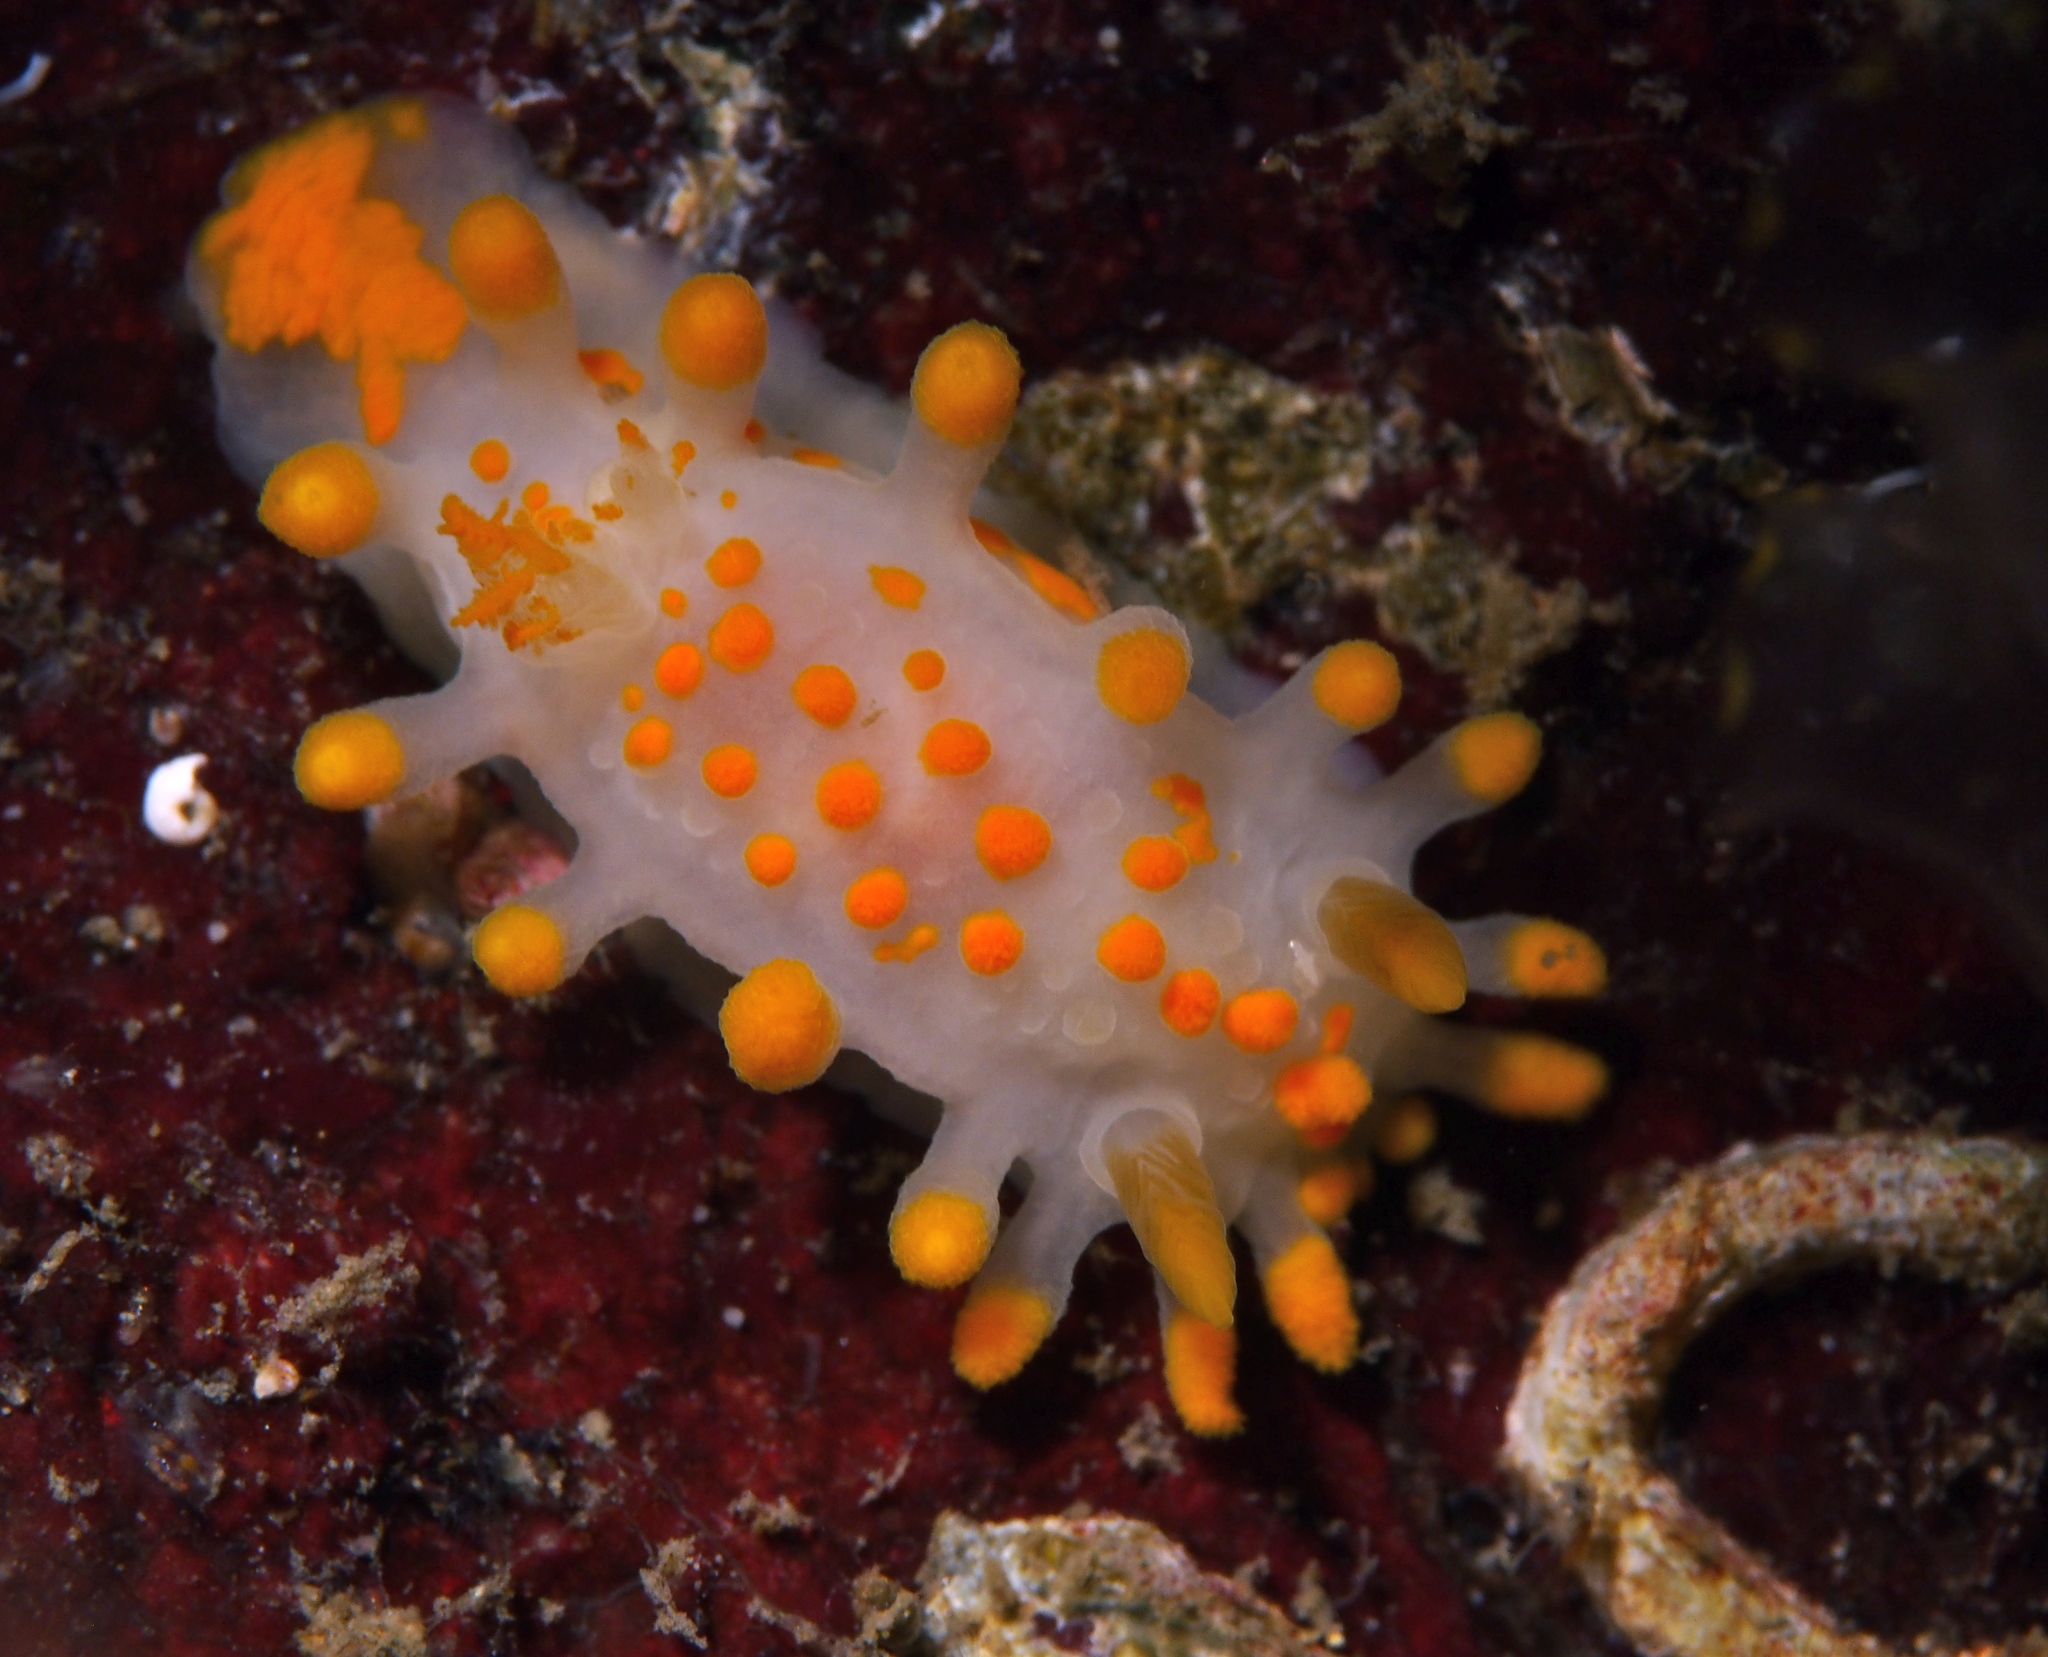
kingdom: Animalia
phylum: Mollusca
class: Gastropoda
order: Nudibranchia
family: Polyceridae
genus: Limacia
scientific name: Limacia clavigera
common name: Orange-clubbed sea slug
